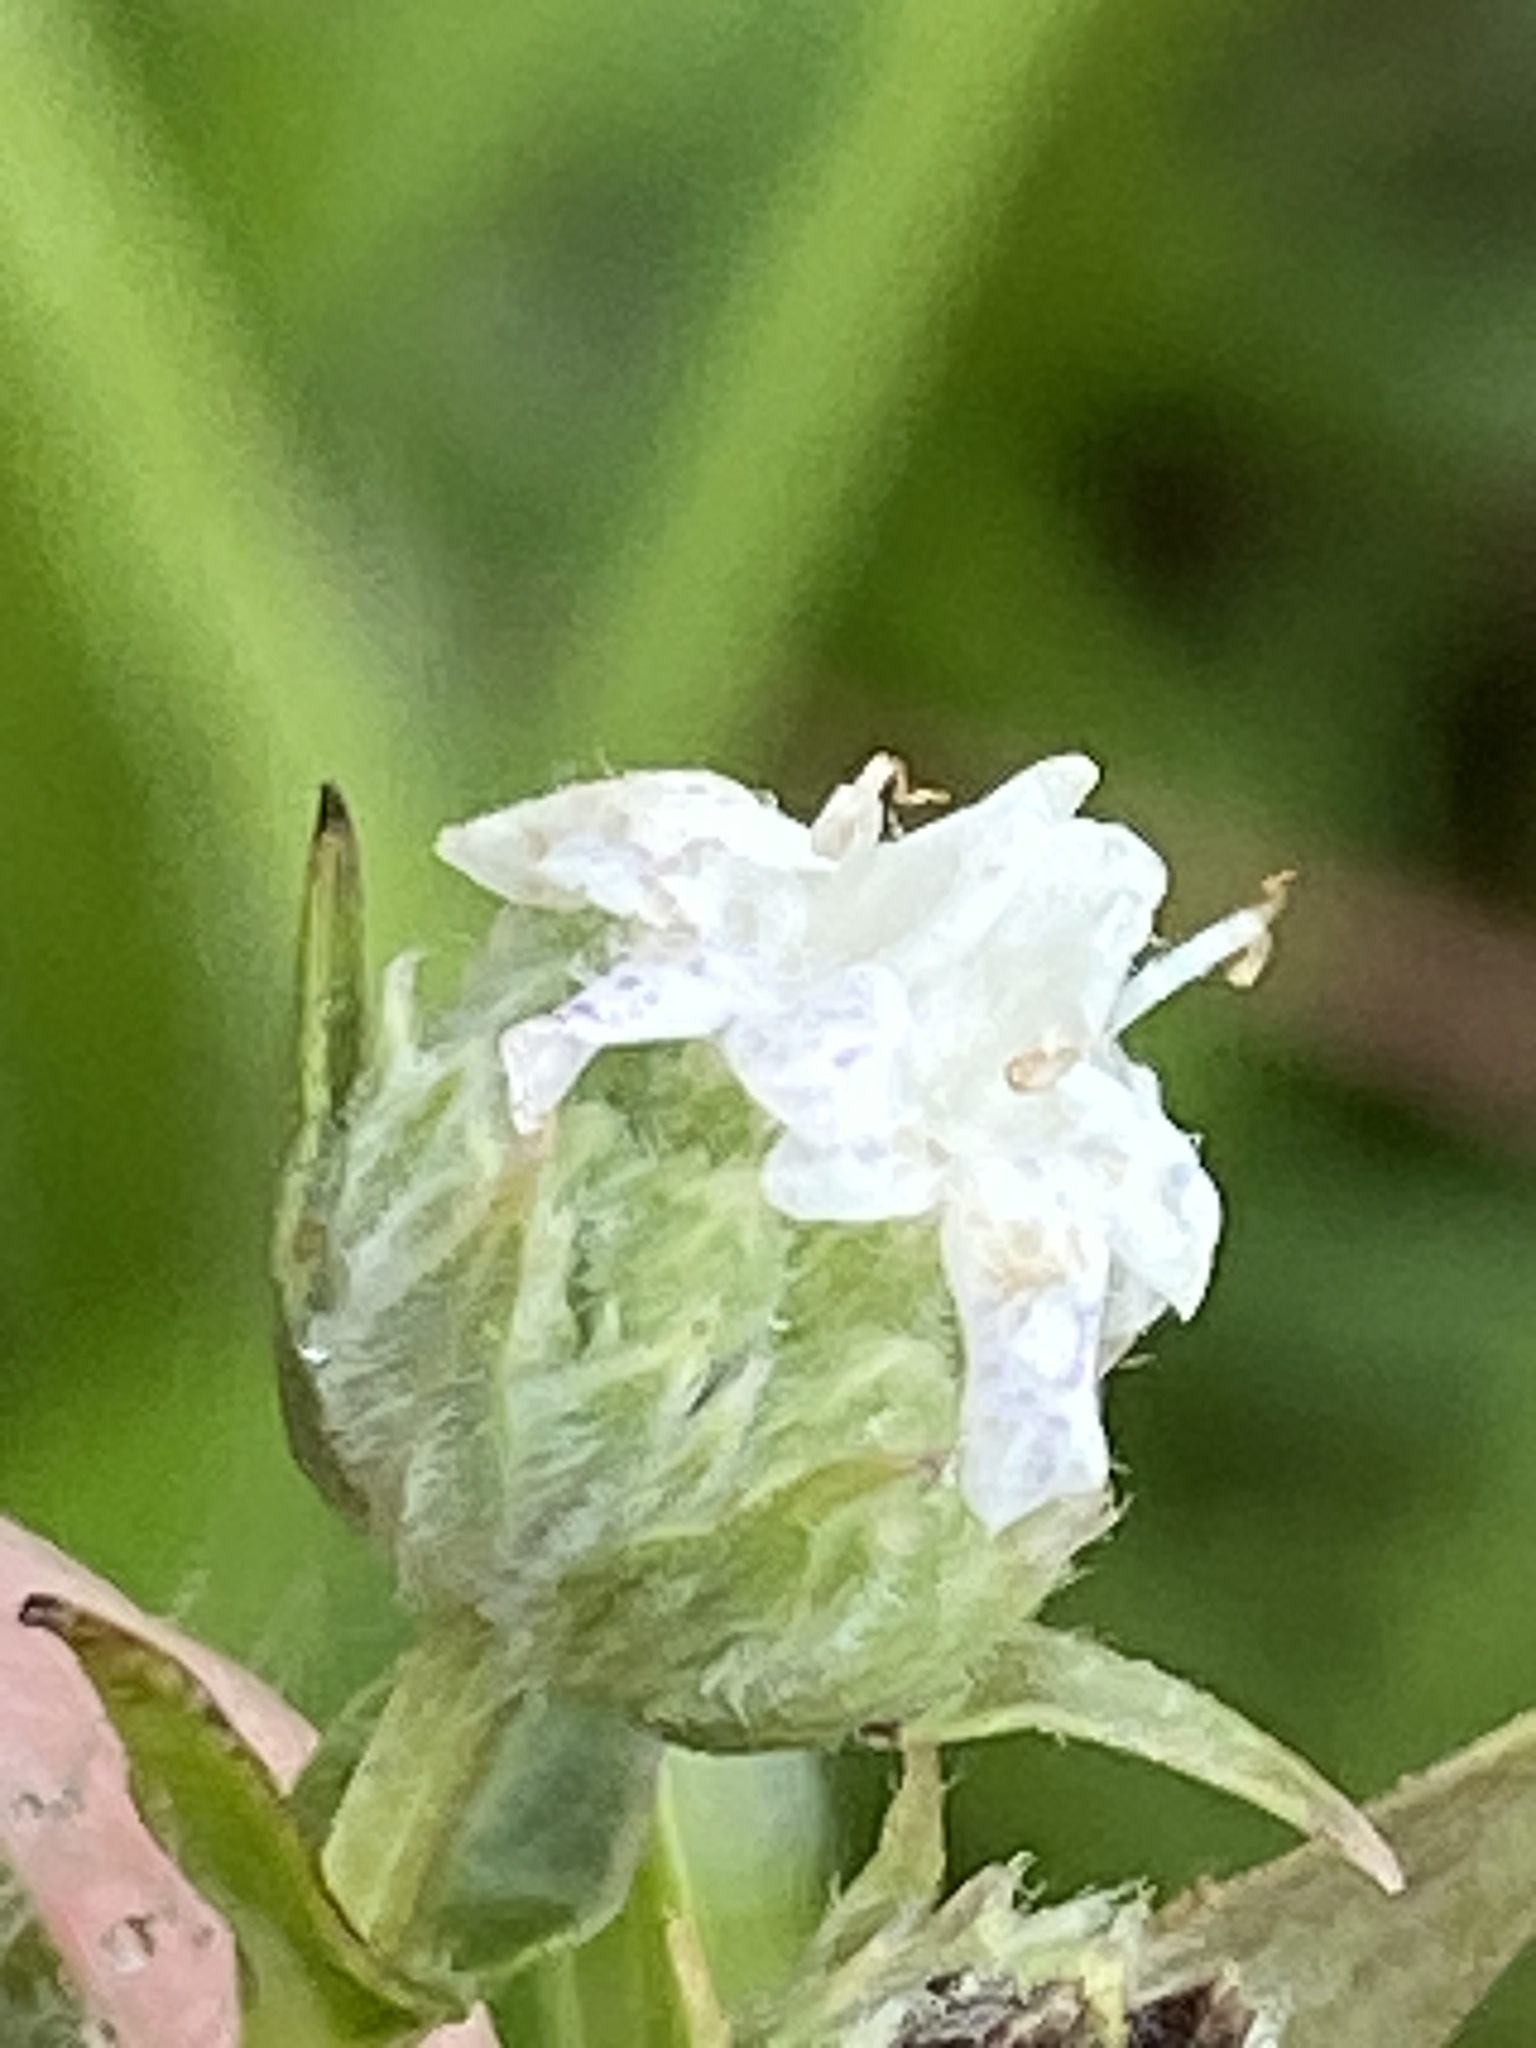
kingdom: Plantae
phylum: Tracheophyta
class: Magnoliopsida
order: Lamiales
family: Lamiaceae
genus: Pycnanthemum
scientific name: Pycnanthemum virginianum
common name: Virginia mountain-mint
